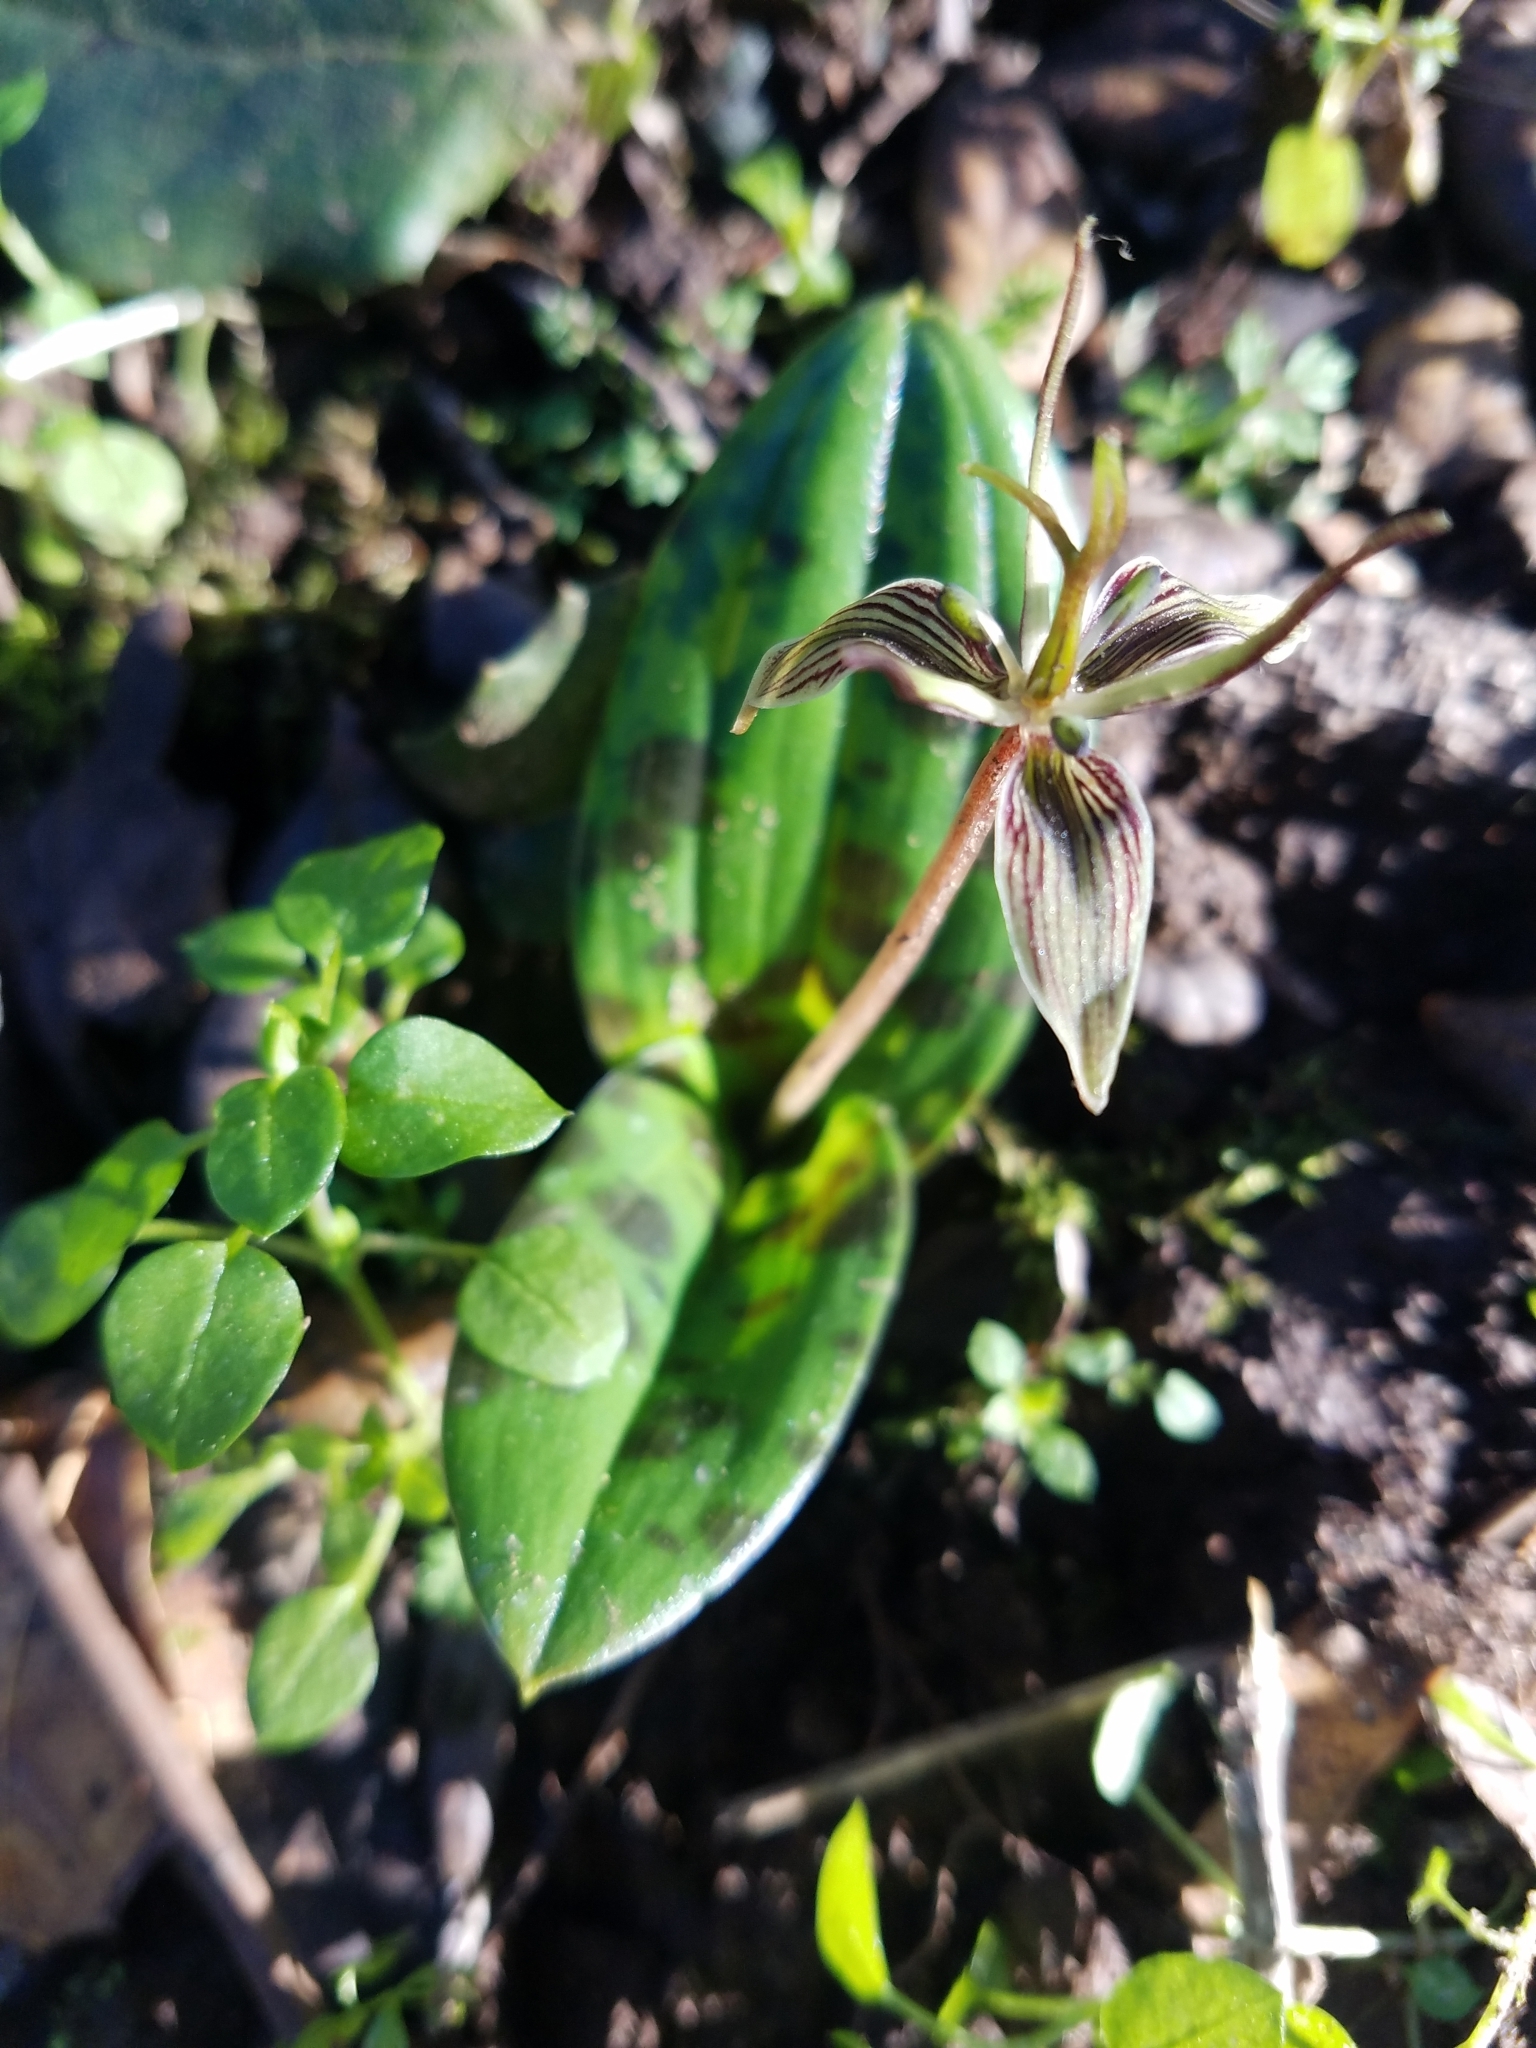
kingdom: Plantae
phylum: Tracheophyta
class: Liliopsida
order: Liliales
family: Liliaceae
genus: Scoliopus
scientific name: Scoliopus bigelovii
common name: Foetid adder's-tongue
